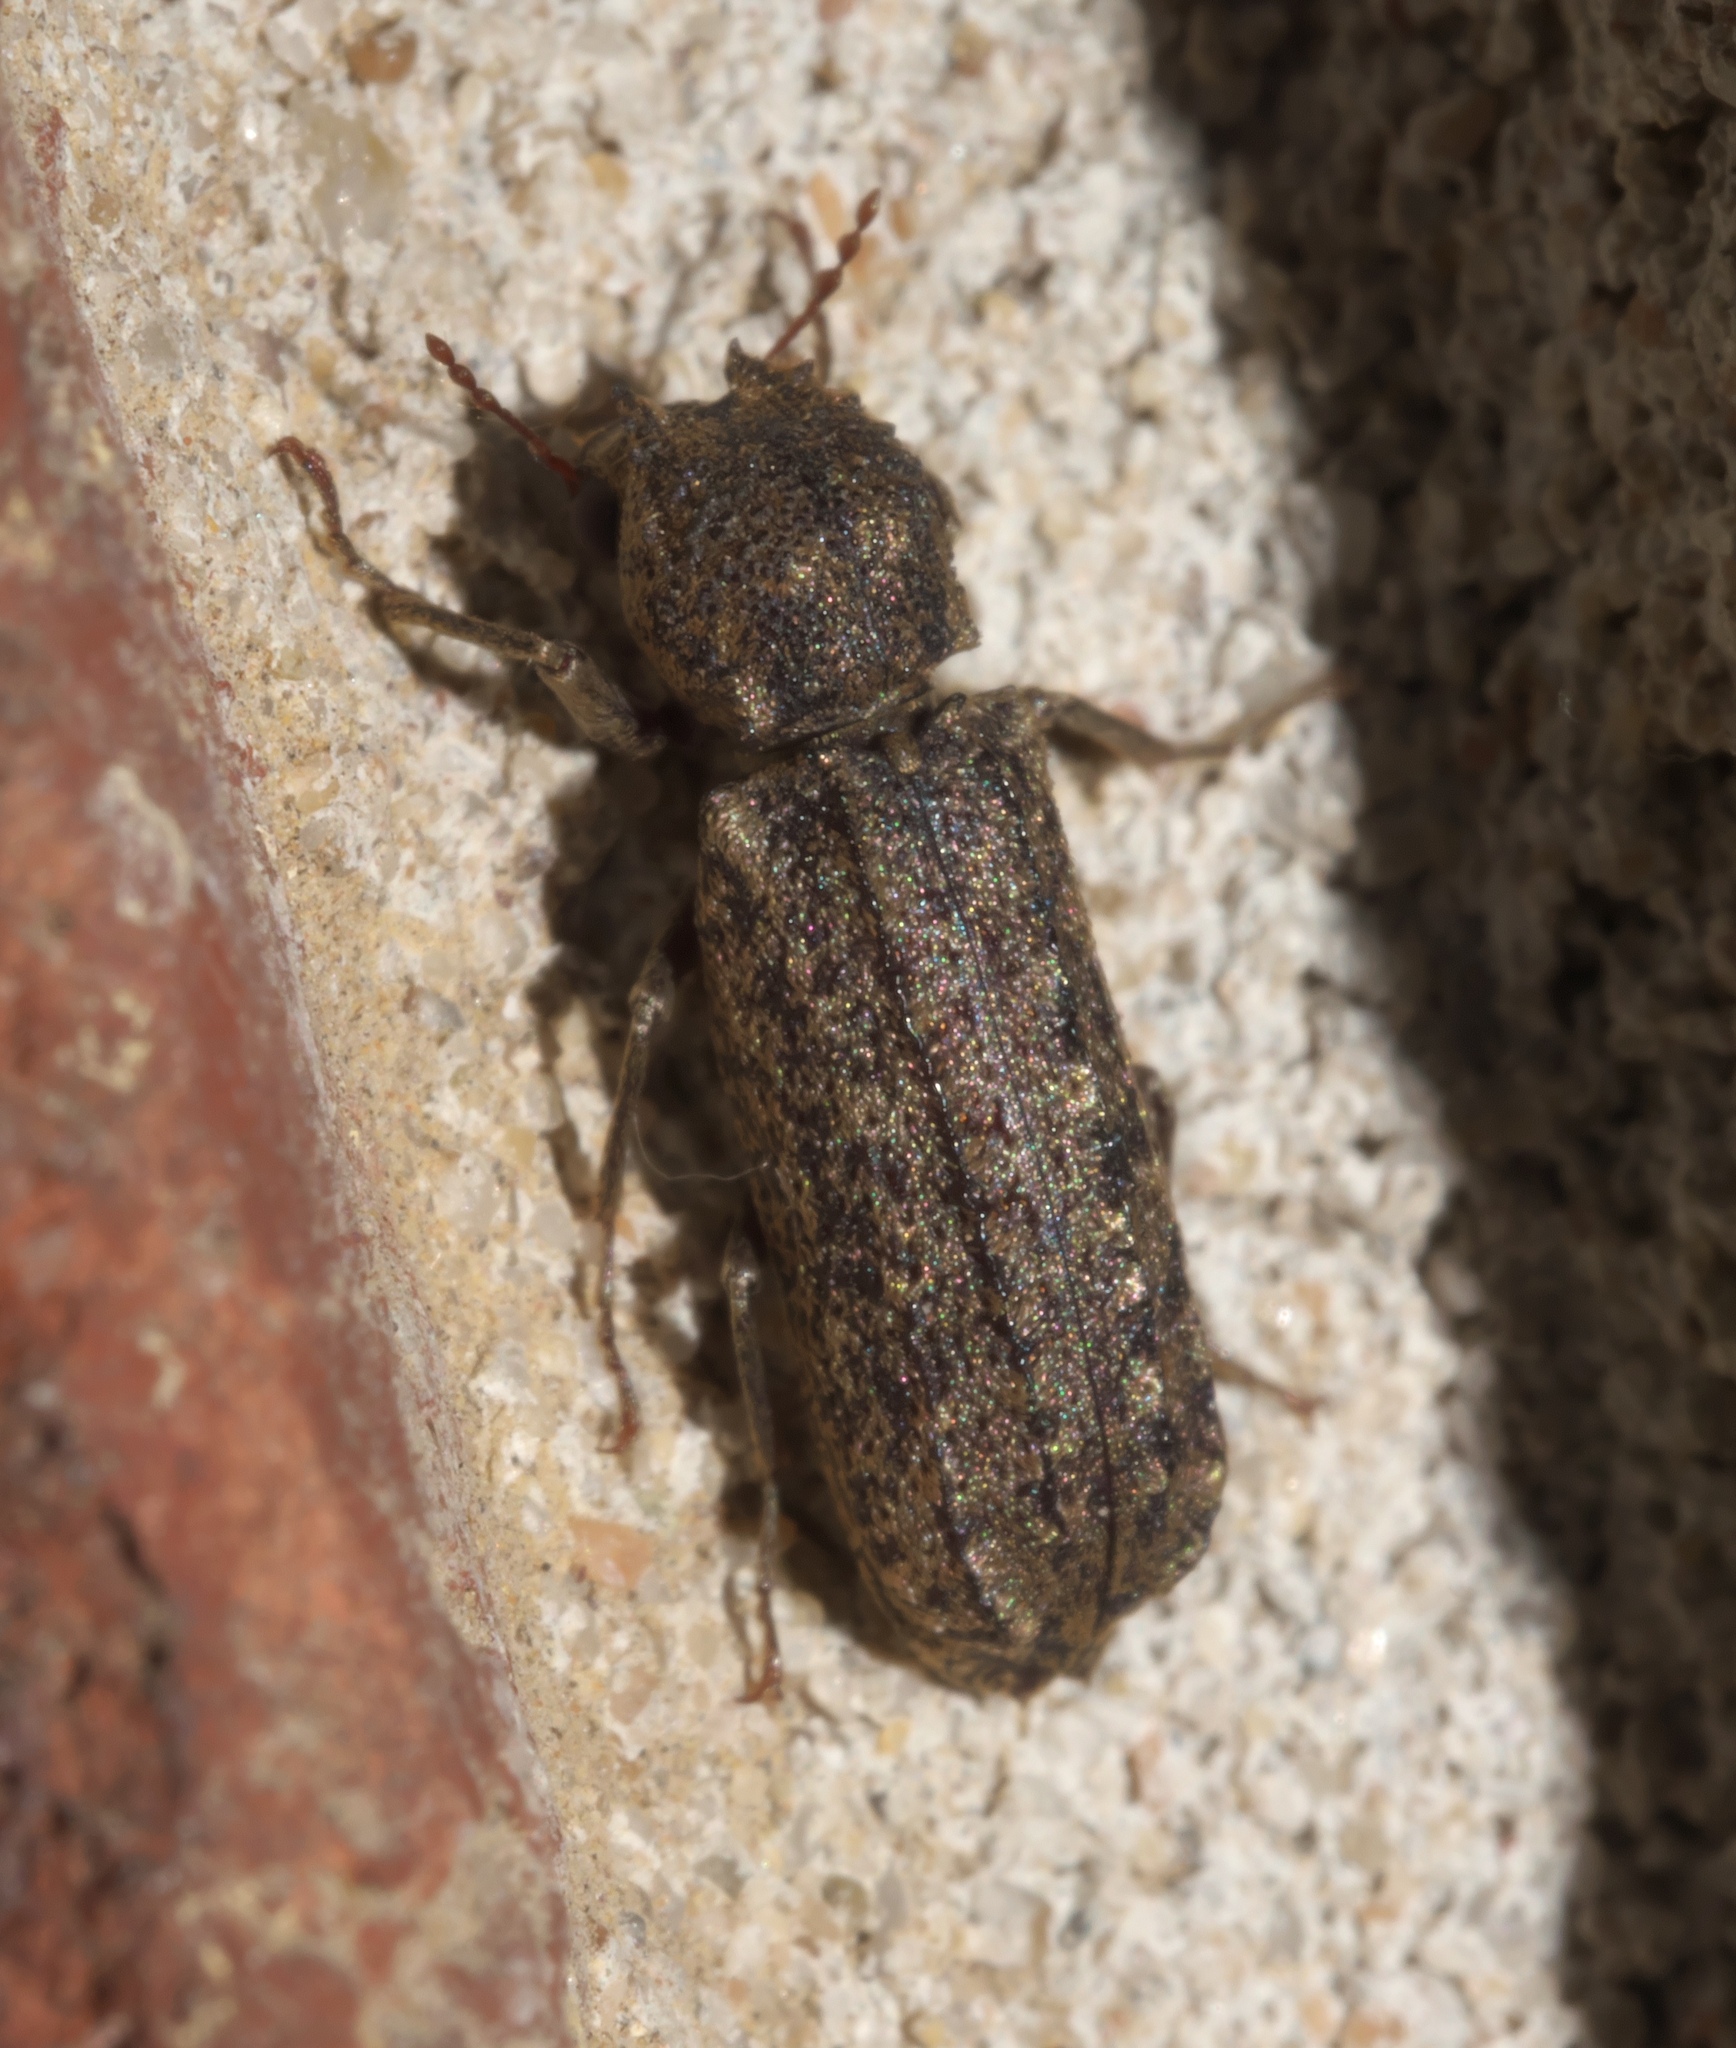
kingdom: Animalia
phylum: Arthropoda
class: Insecta
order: Coleoptera
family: Bostrichidae
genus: Lichenophanes
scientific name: Lichenophanes bicornis
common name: Two-horned powder-post beetle
